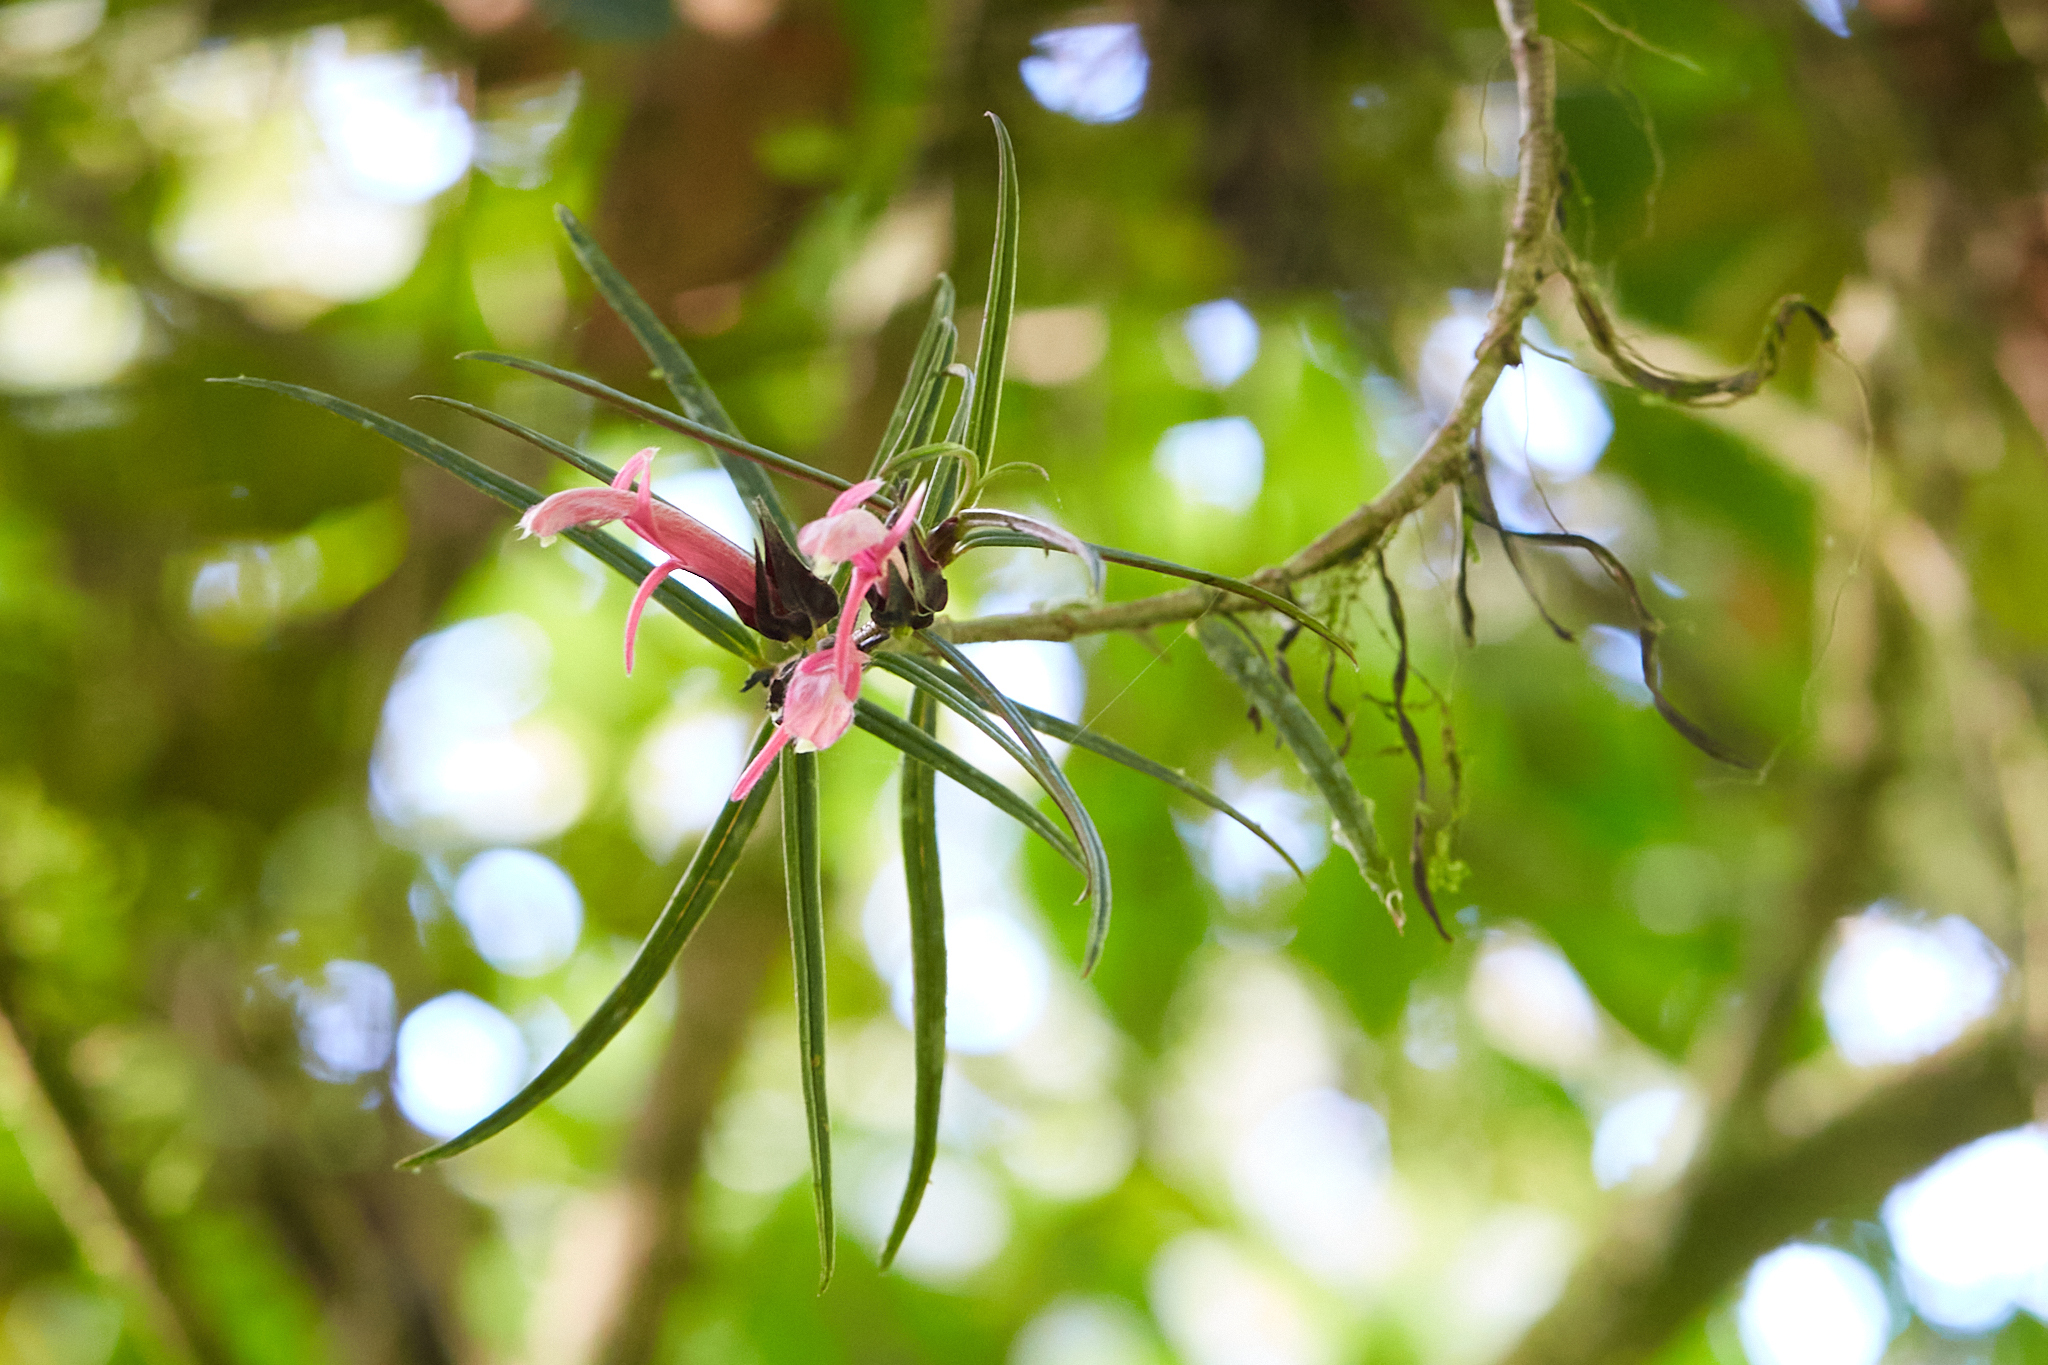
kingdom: Plantae
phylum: Tracheophyta
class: Magnoliopsida
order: Lamiales
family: Gesneriaceae
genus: Columnea
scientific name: Columnea linearis
